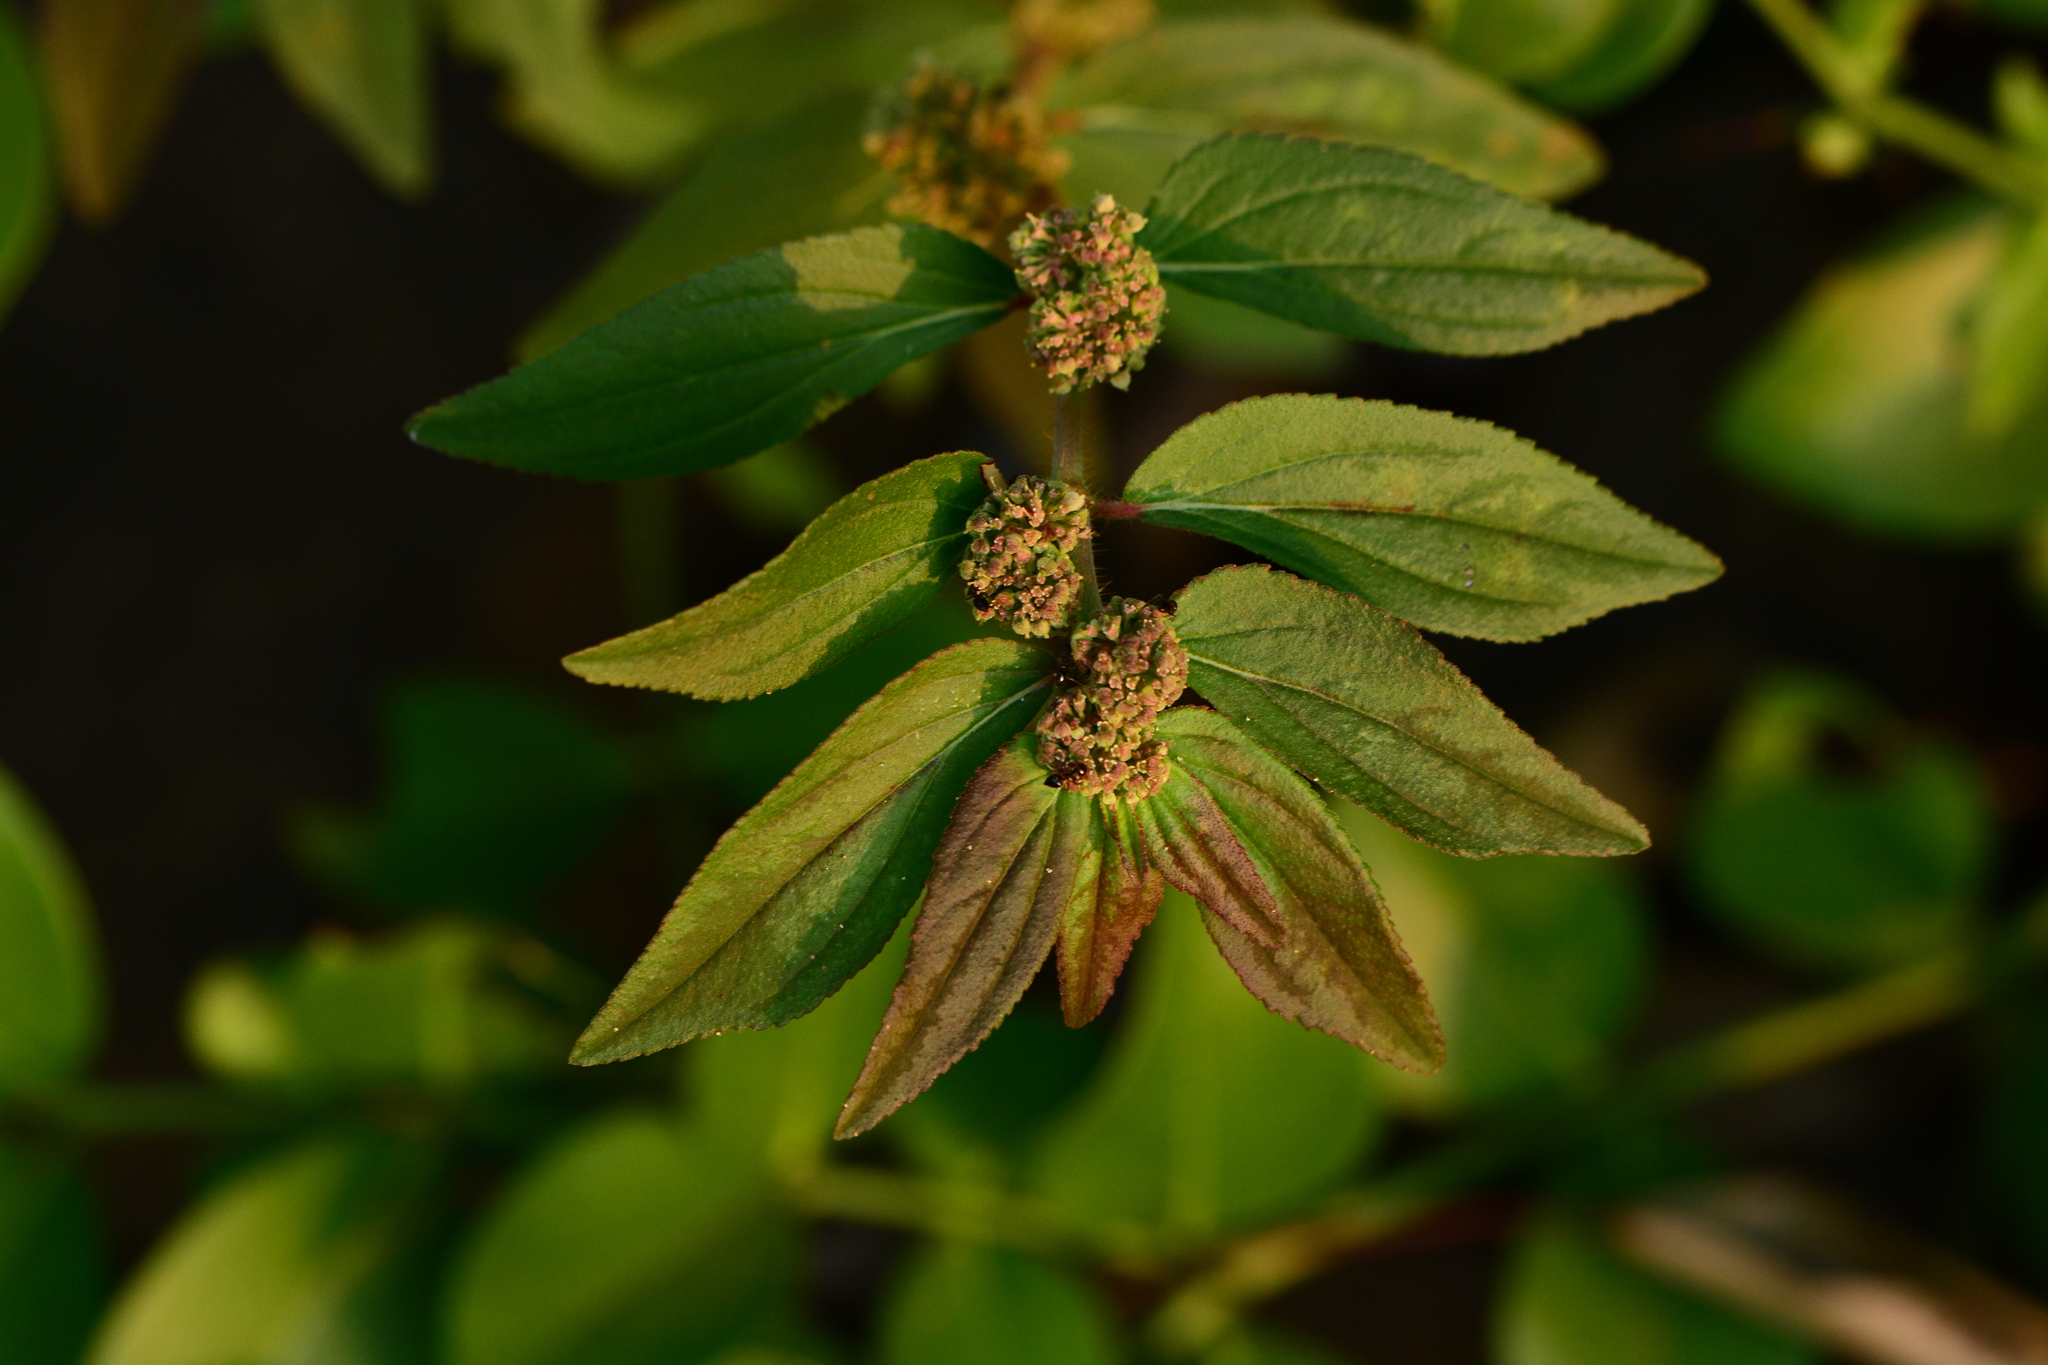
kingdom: Plantae
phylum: Tracheophyta
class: Magnoliopsida
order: Malpighiales
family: Euphorbiaceae
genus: Euphorbia
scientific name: Euphorbia hirta
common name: Pillpod sandmat
